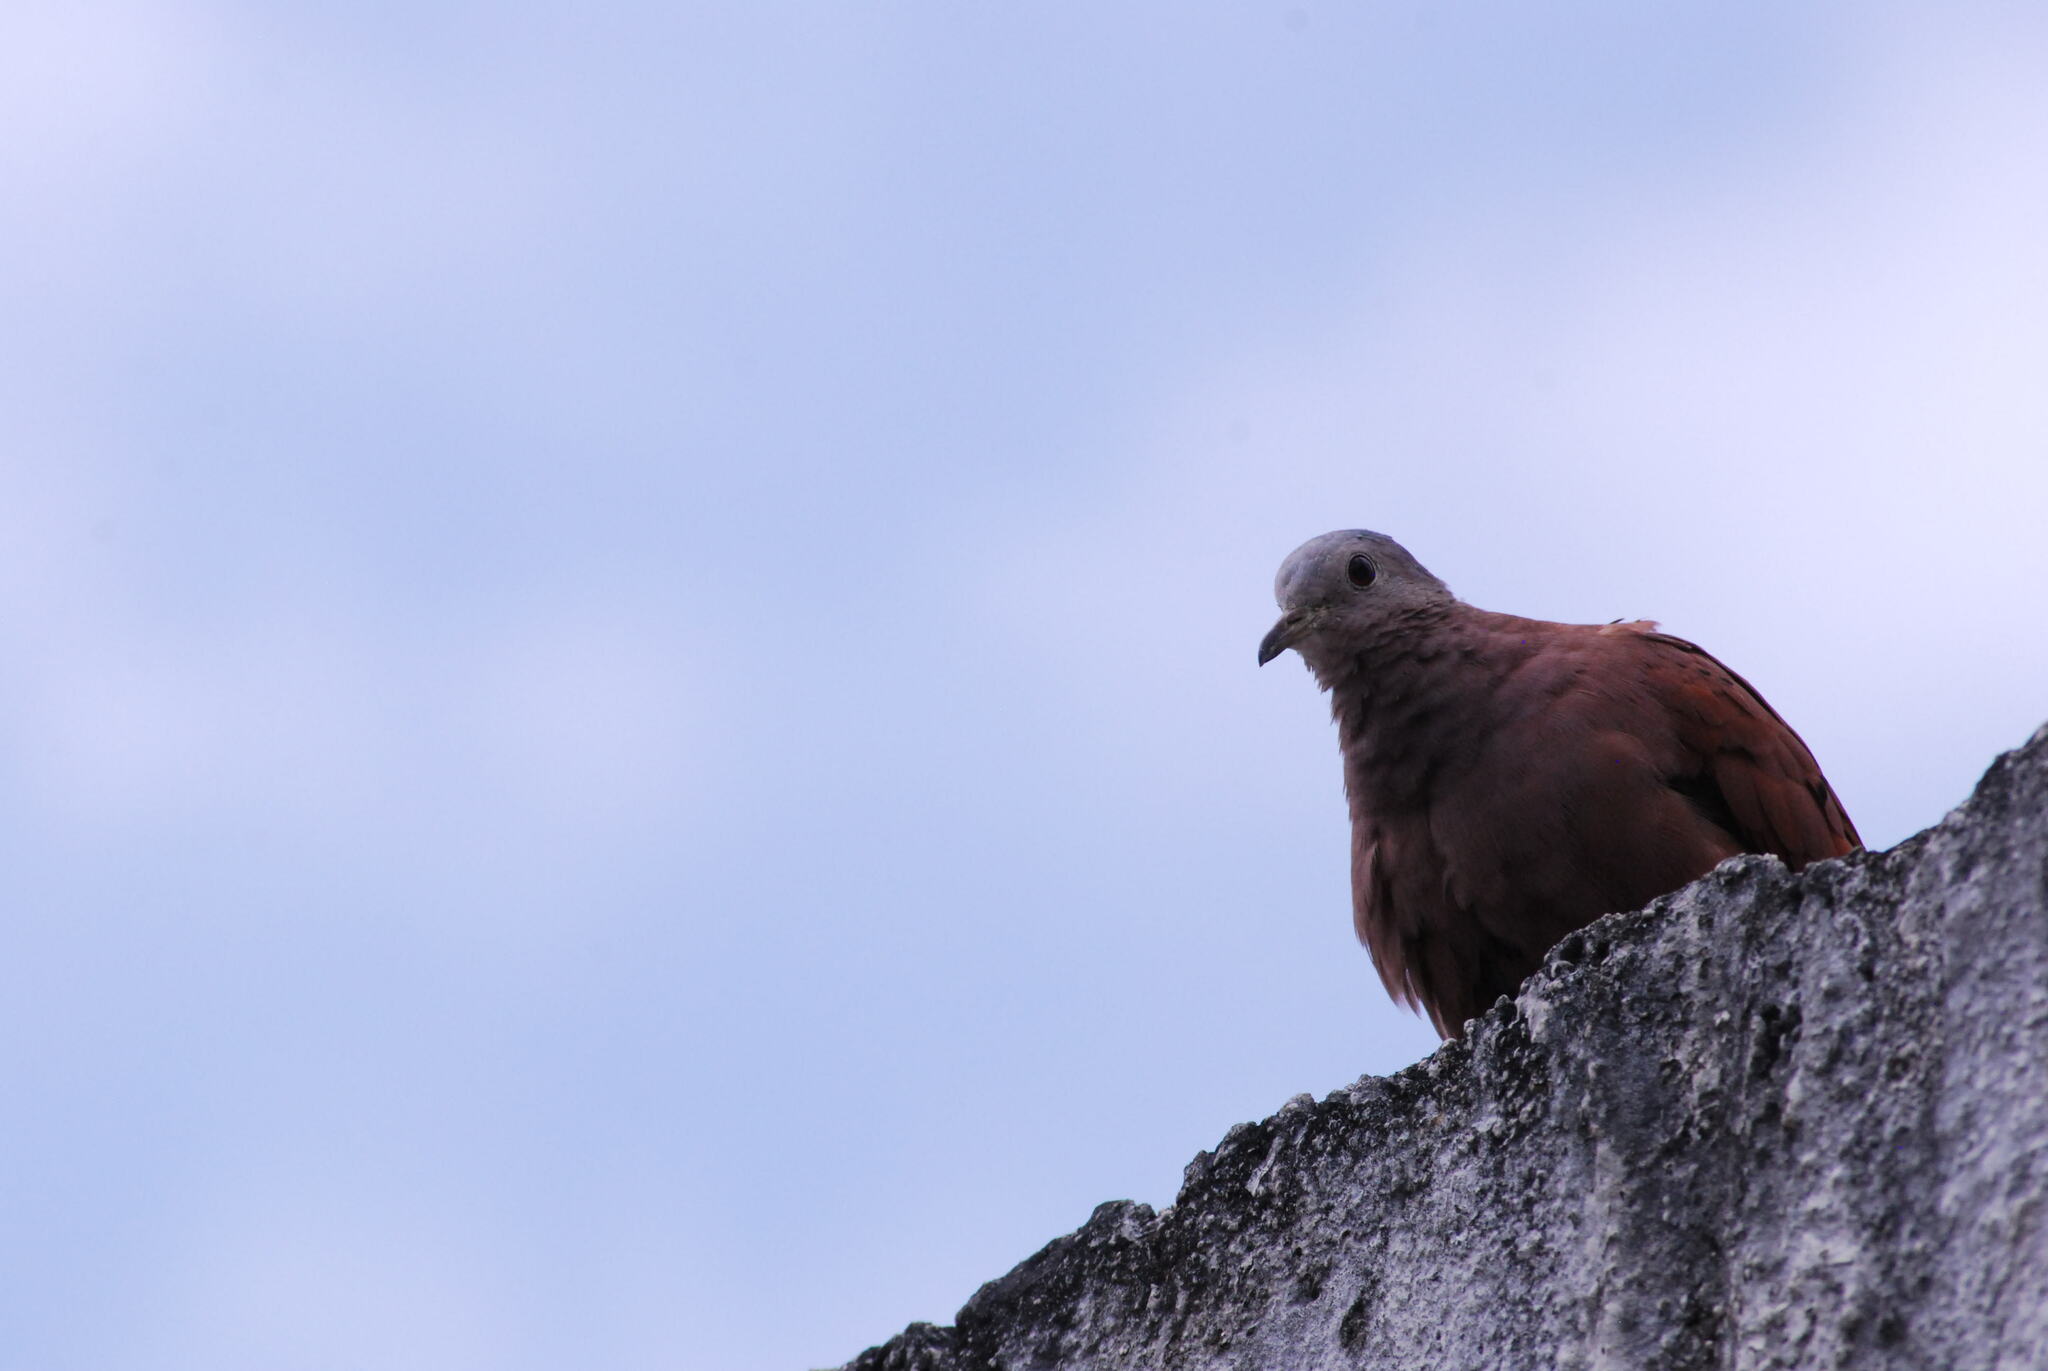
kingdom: Animalia
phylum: Chordata
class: Aves
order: Columbiformes
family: Columbidae
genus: Columbina
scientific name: Columbina talpacoti
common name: Ruddy ground dove
